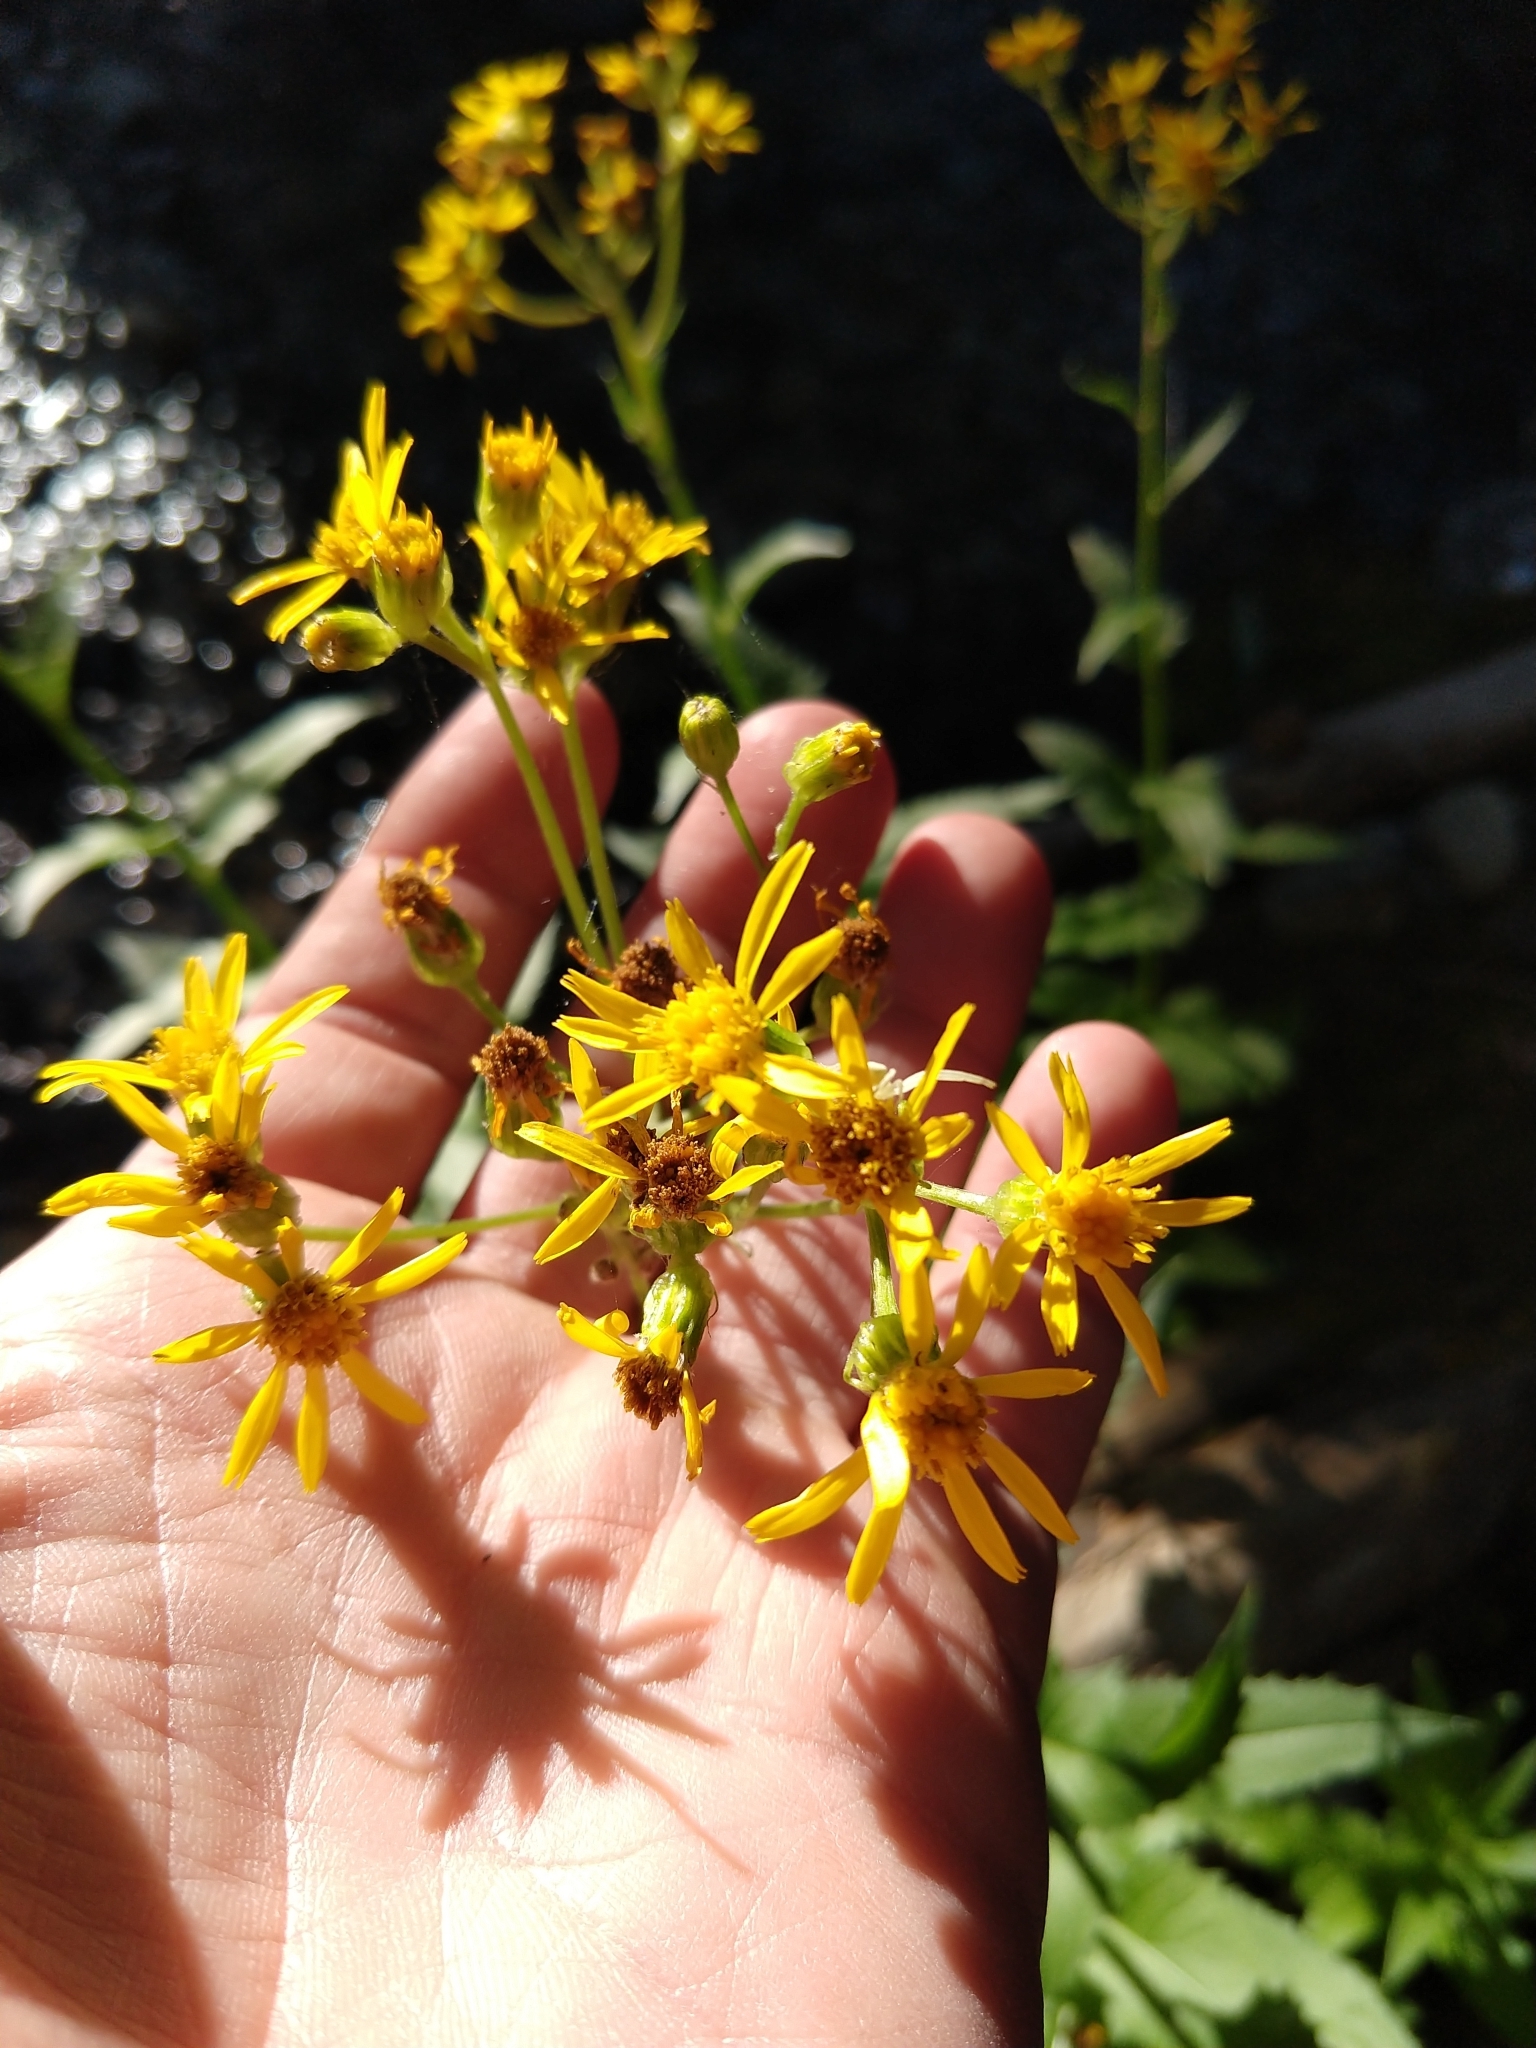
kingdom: Plantae
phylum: Tracheophyta
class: Magnoliopsida
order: Asterales
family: Asteraceae
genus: Senecio
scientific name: Senecio triangularis
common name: Arrowleaf butterweed
